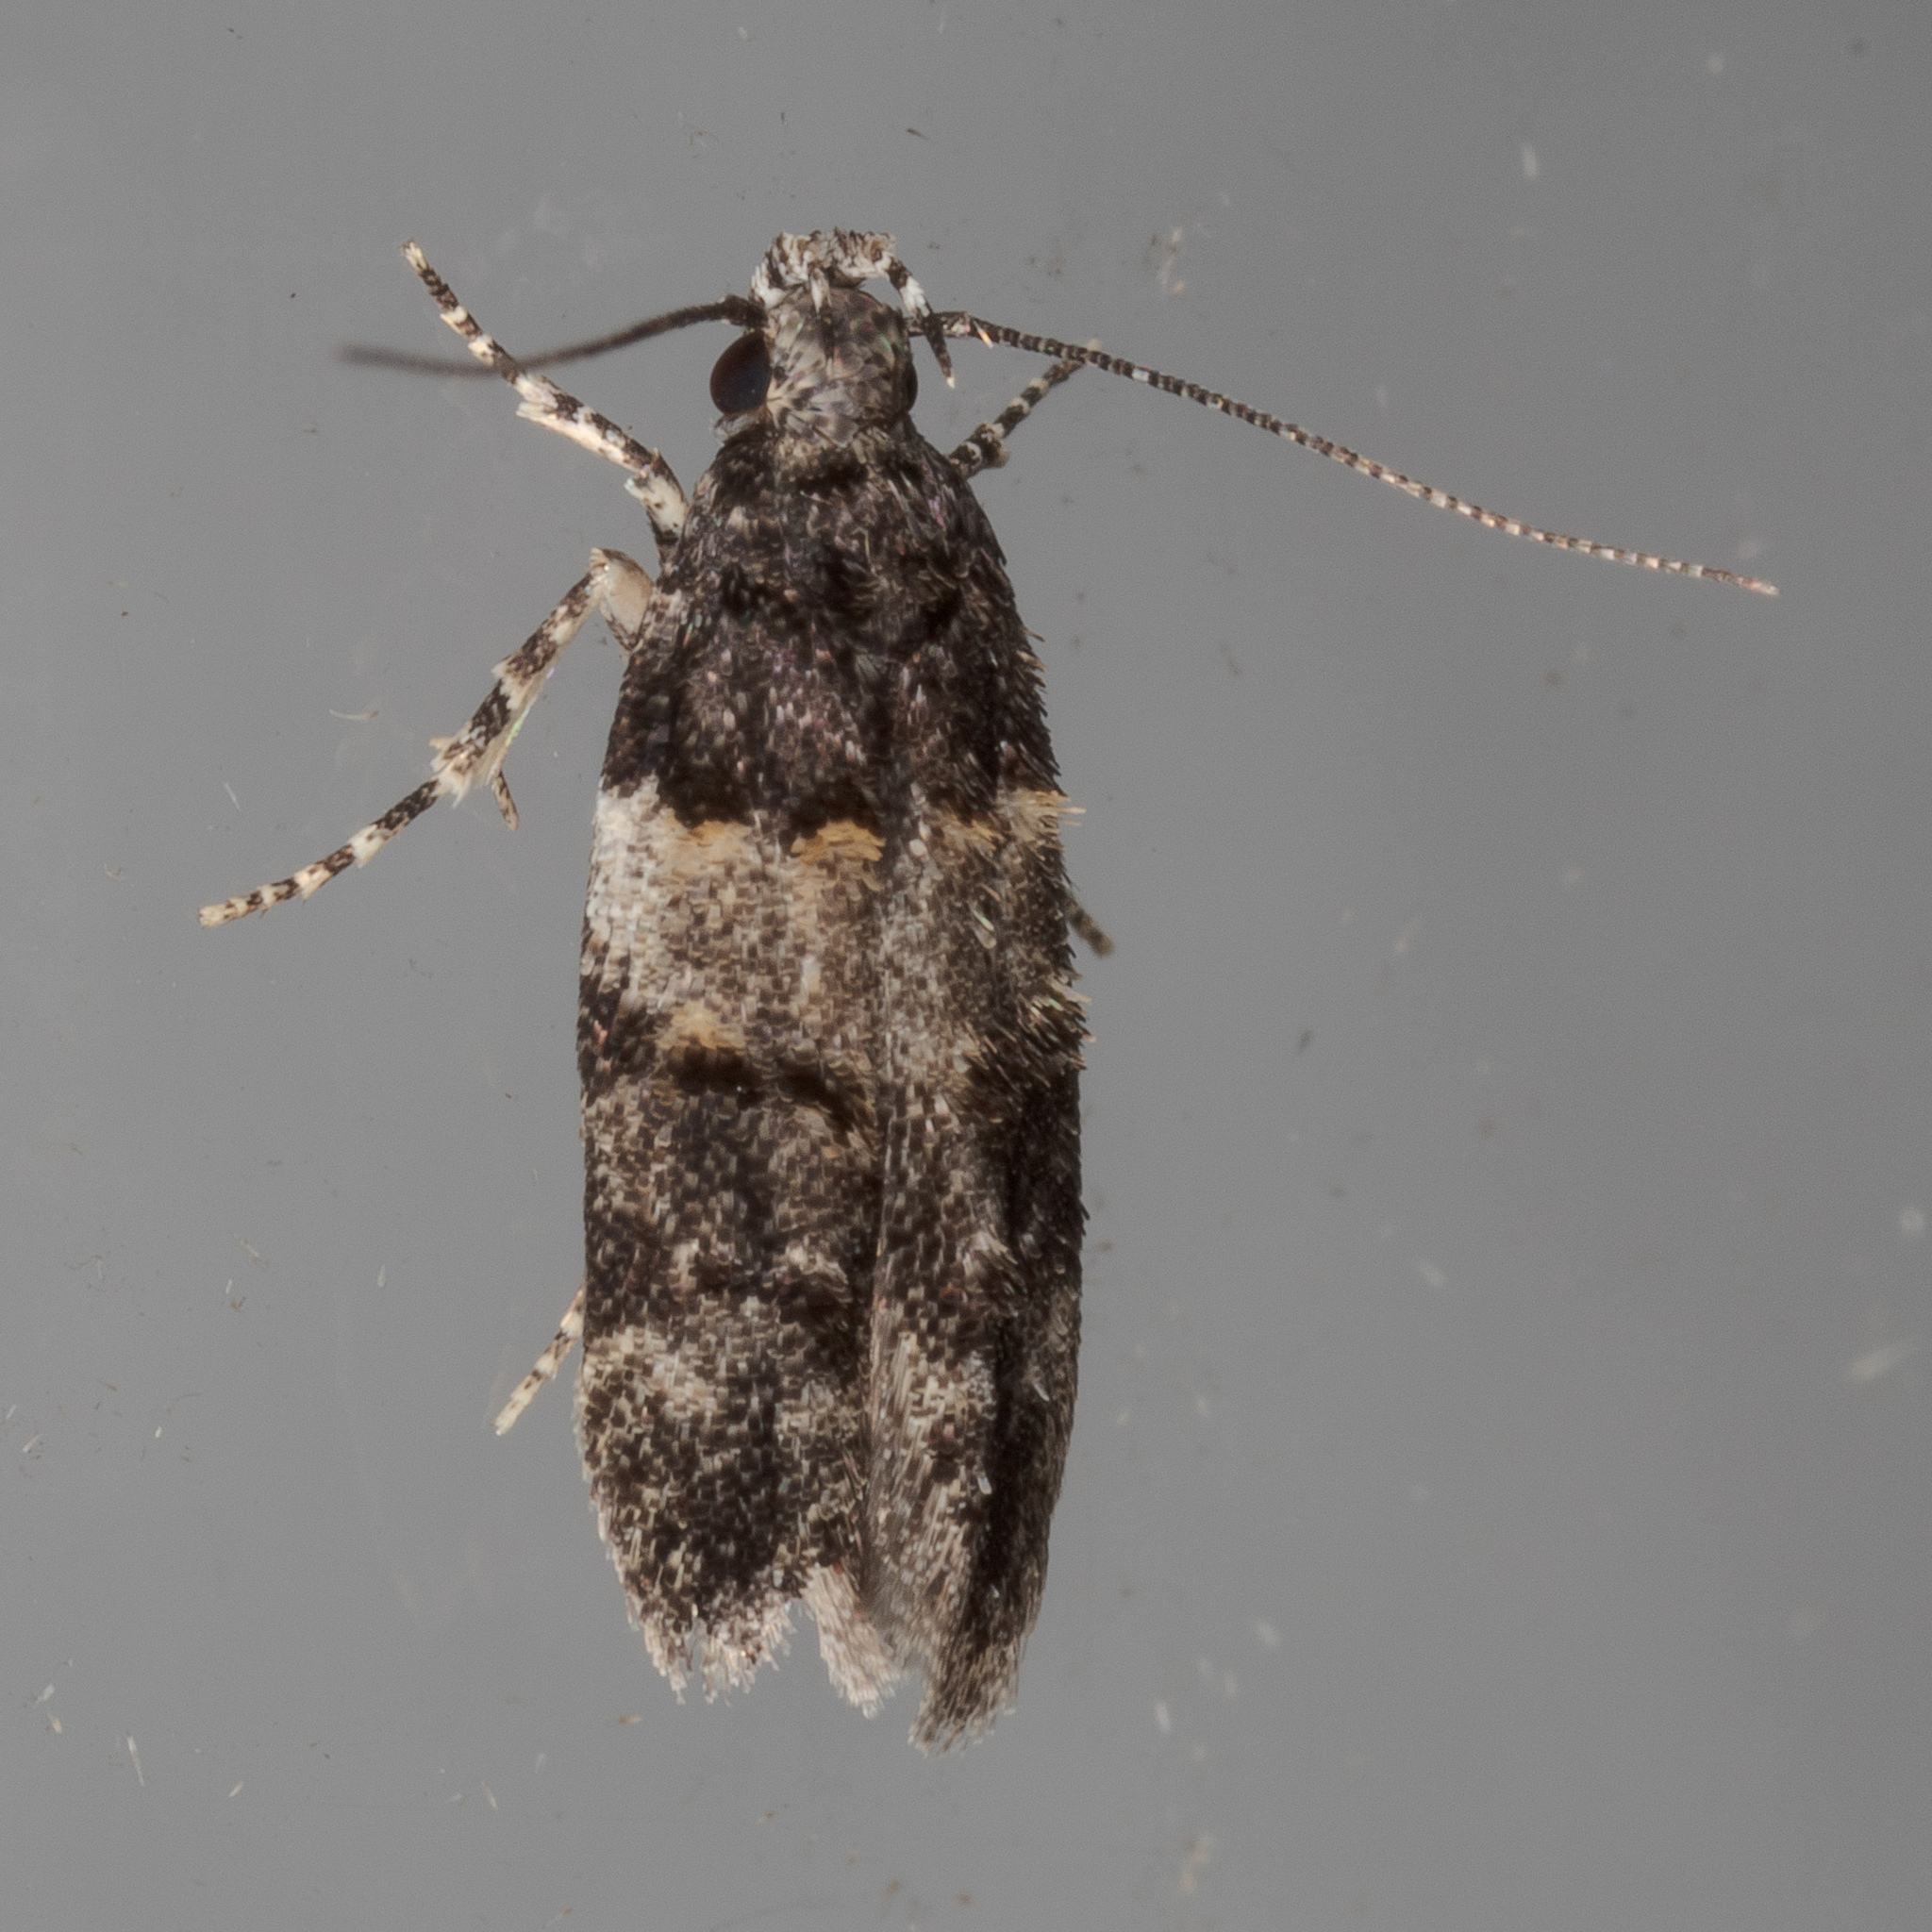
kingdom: Animalia
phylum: Arthropoda
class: Insecta
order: Lepidoptera
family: Gelechiidae
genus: Pubitelphusa
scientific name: Pubitelphusa latifasciella
